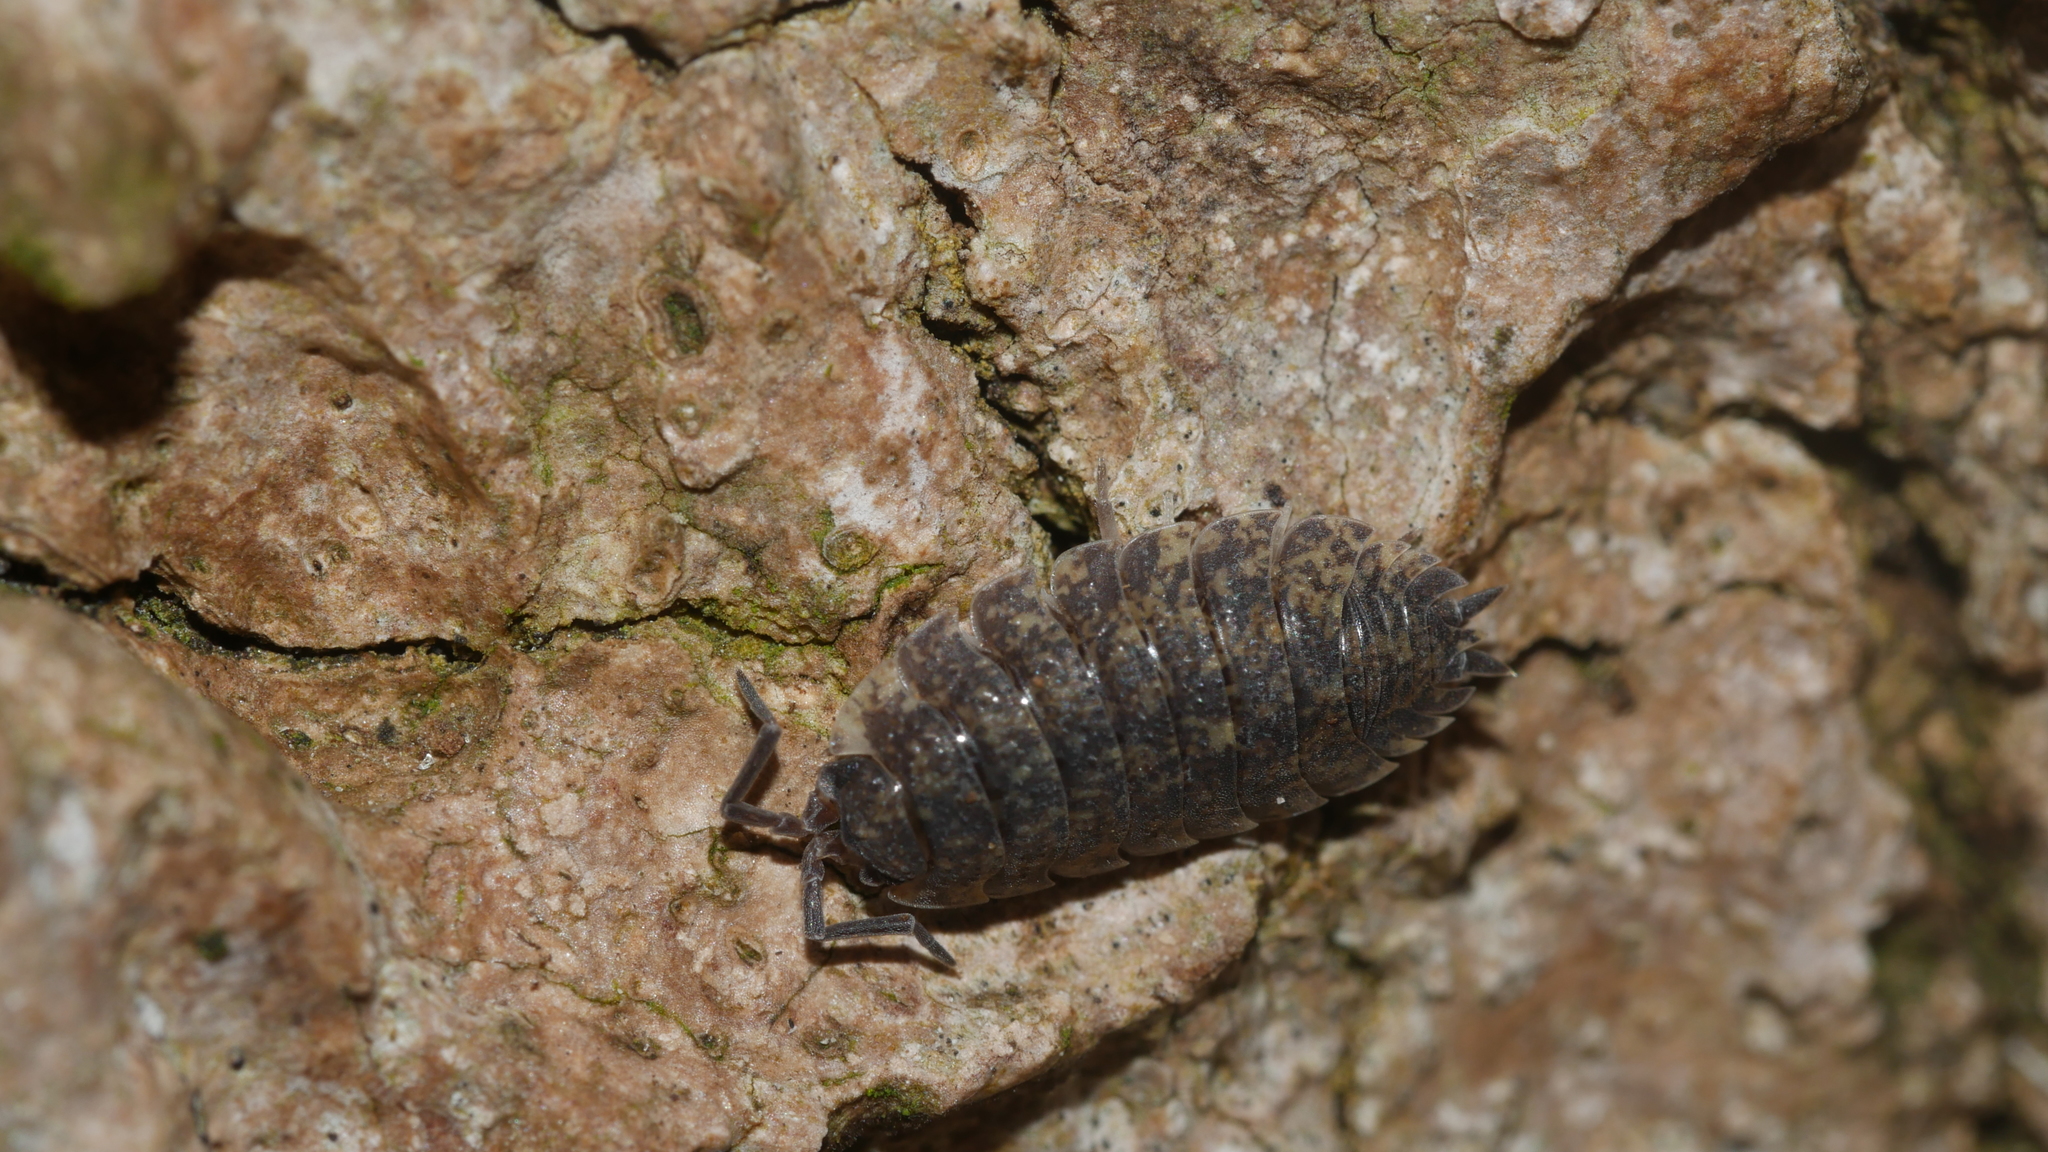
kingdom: Animalia
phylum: Arthropoda
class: Malacostraca
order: Isopoda
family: Porcellionidae
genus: Porcellio
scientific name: Porcellio scaber
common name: Common rough woodlouse
